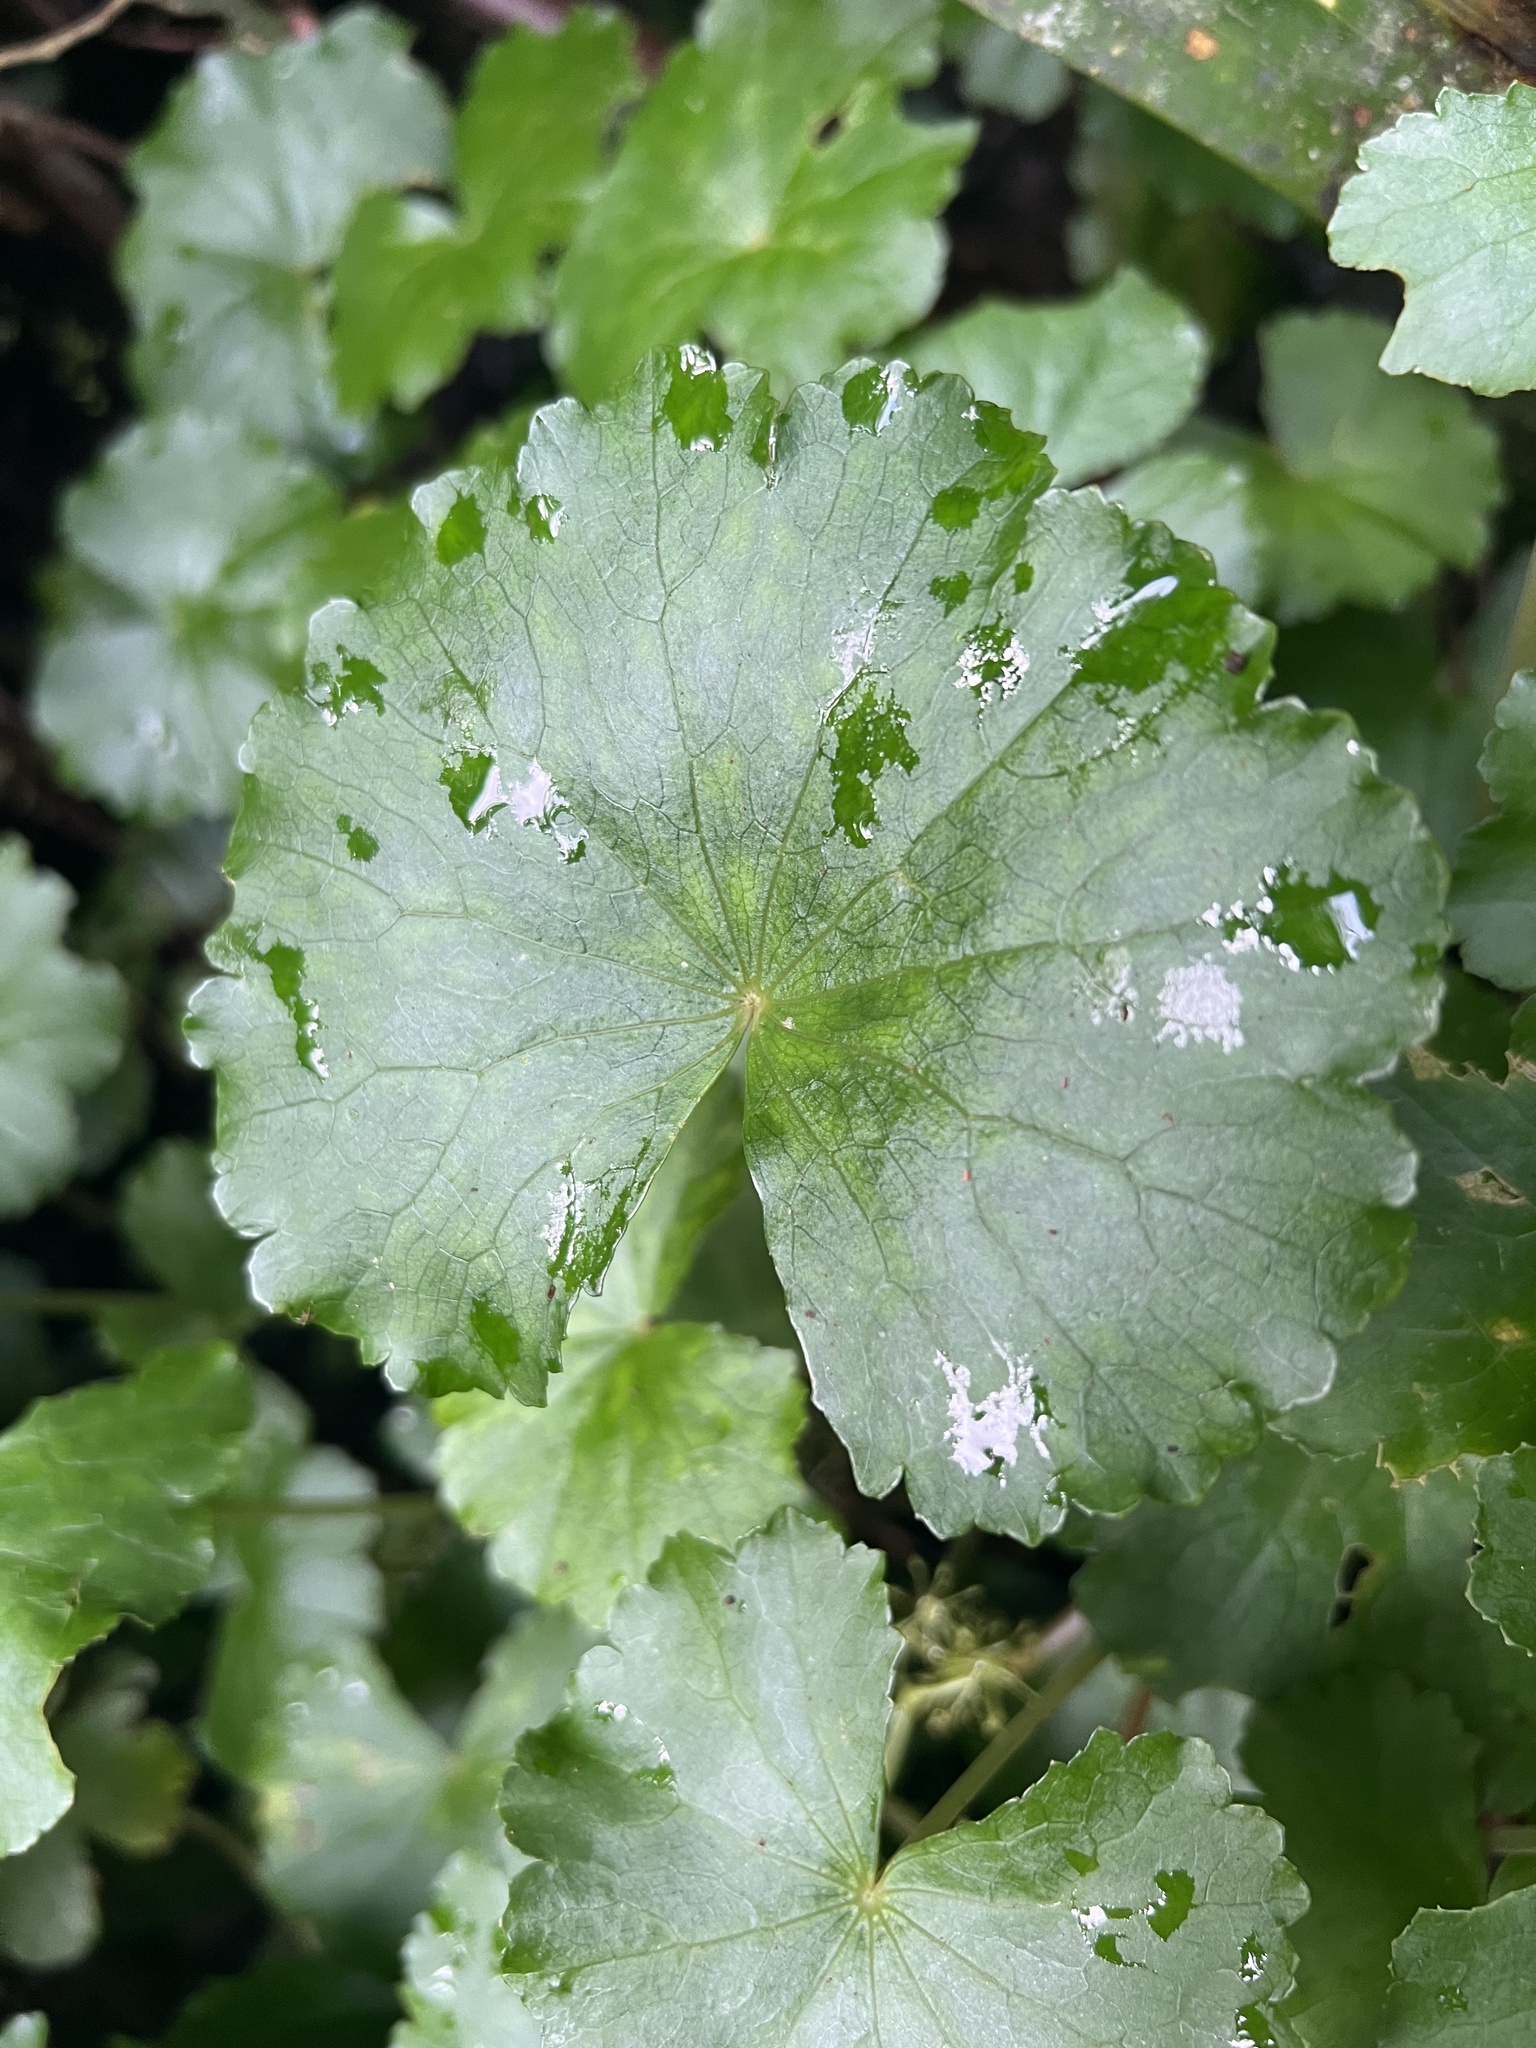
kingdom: Plantae
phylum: Tracheophyta
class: Magnoliopsida
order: Apiales
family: Araliaceae
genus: Hydrocotyle
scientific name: Hydrocotyle pedicellosa
